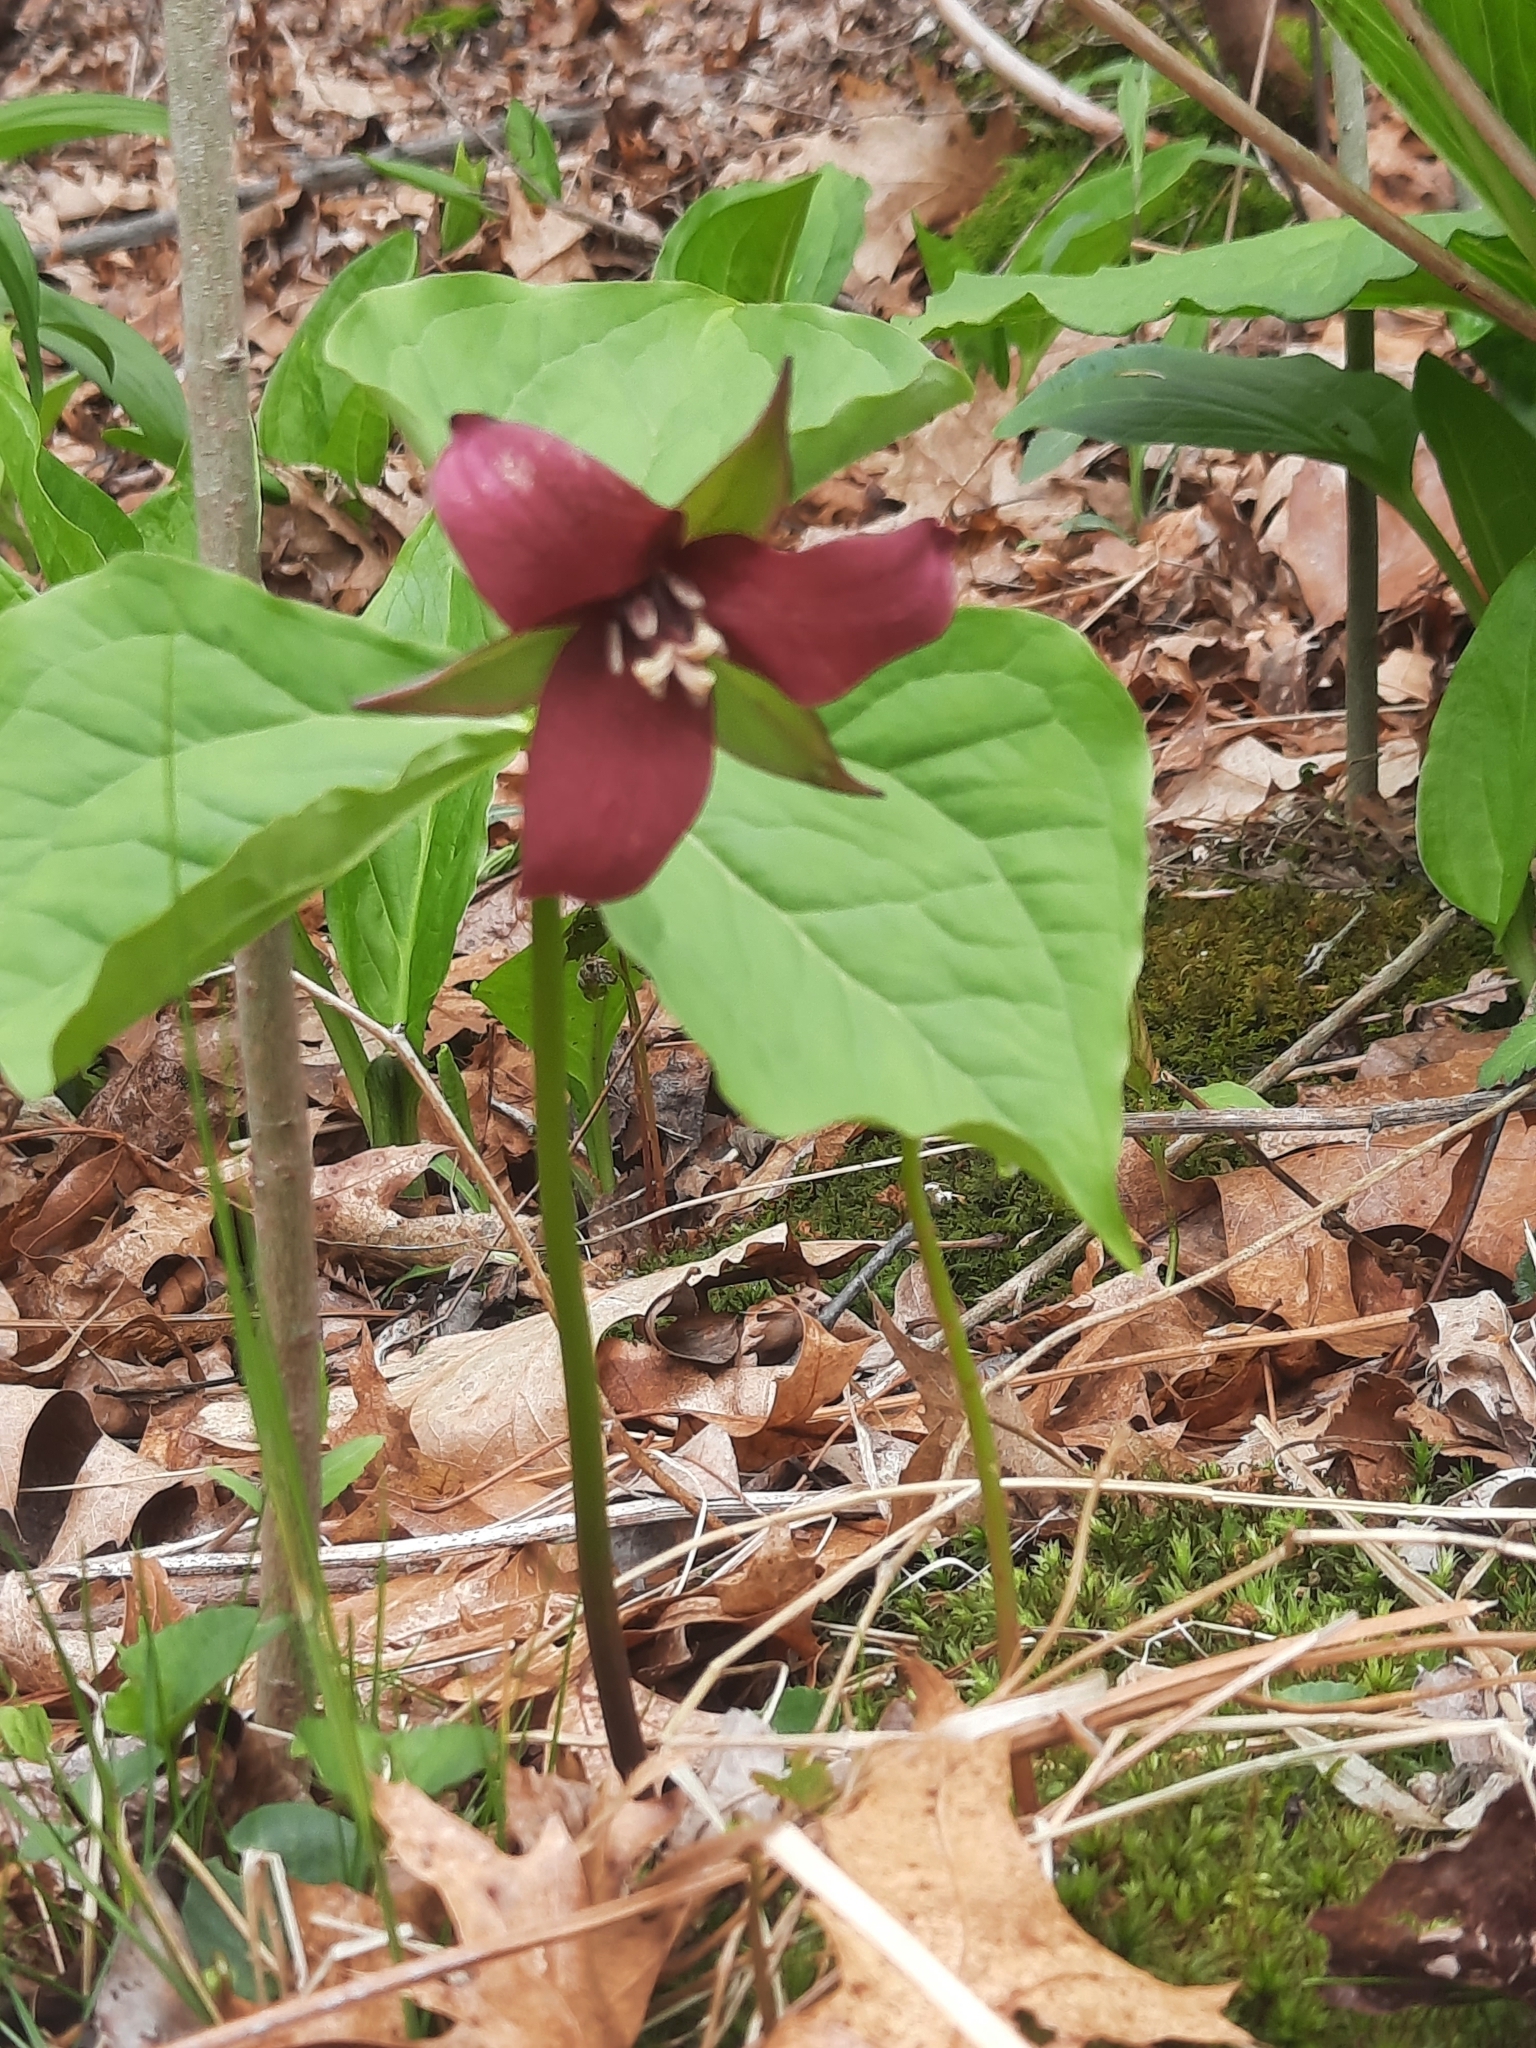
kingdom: Plantae
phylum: Tracheophyta
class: Liliopsida
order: Liliales
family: Melanthiaceae
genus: Trillium
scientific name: Trillium erectum
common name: Purple trillium
